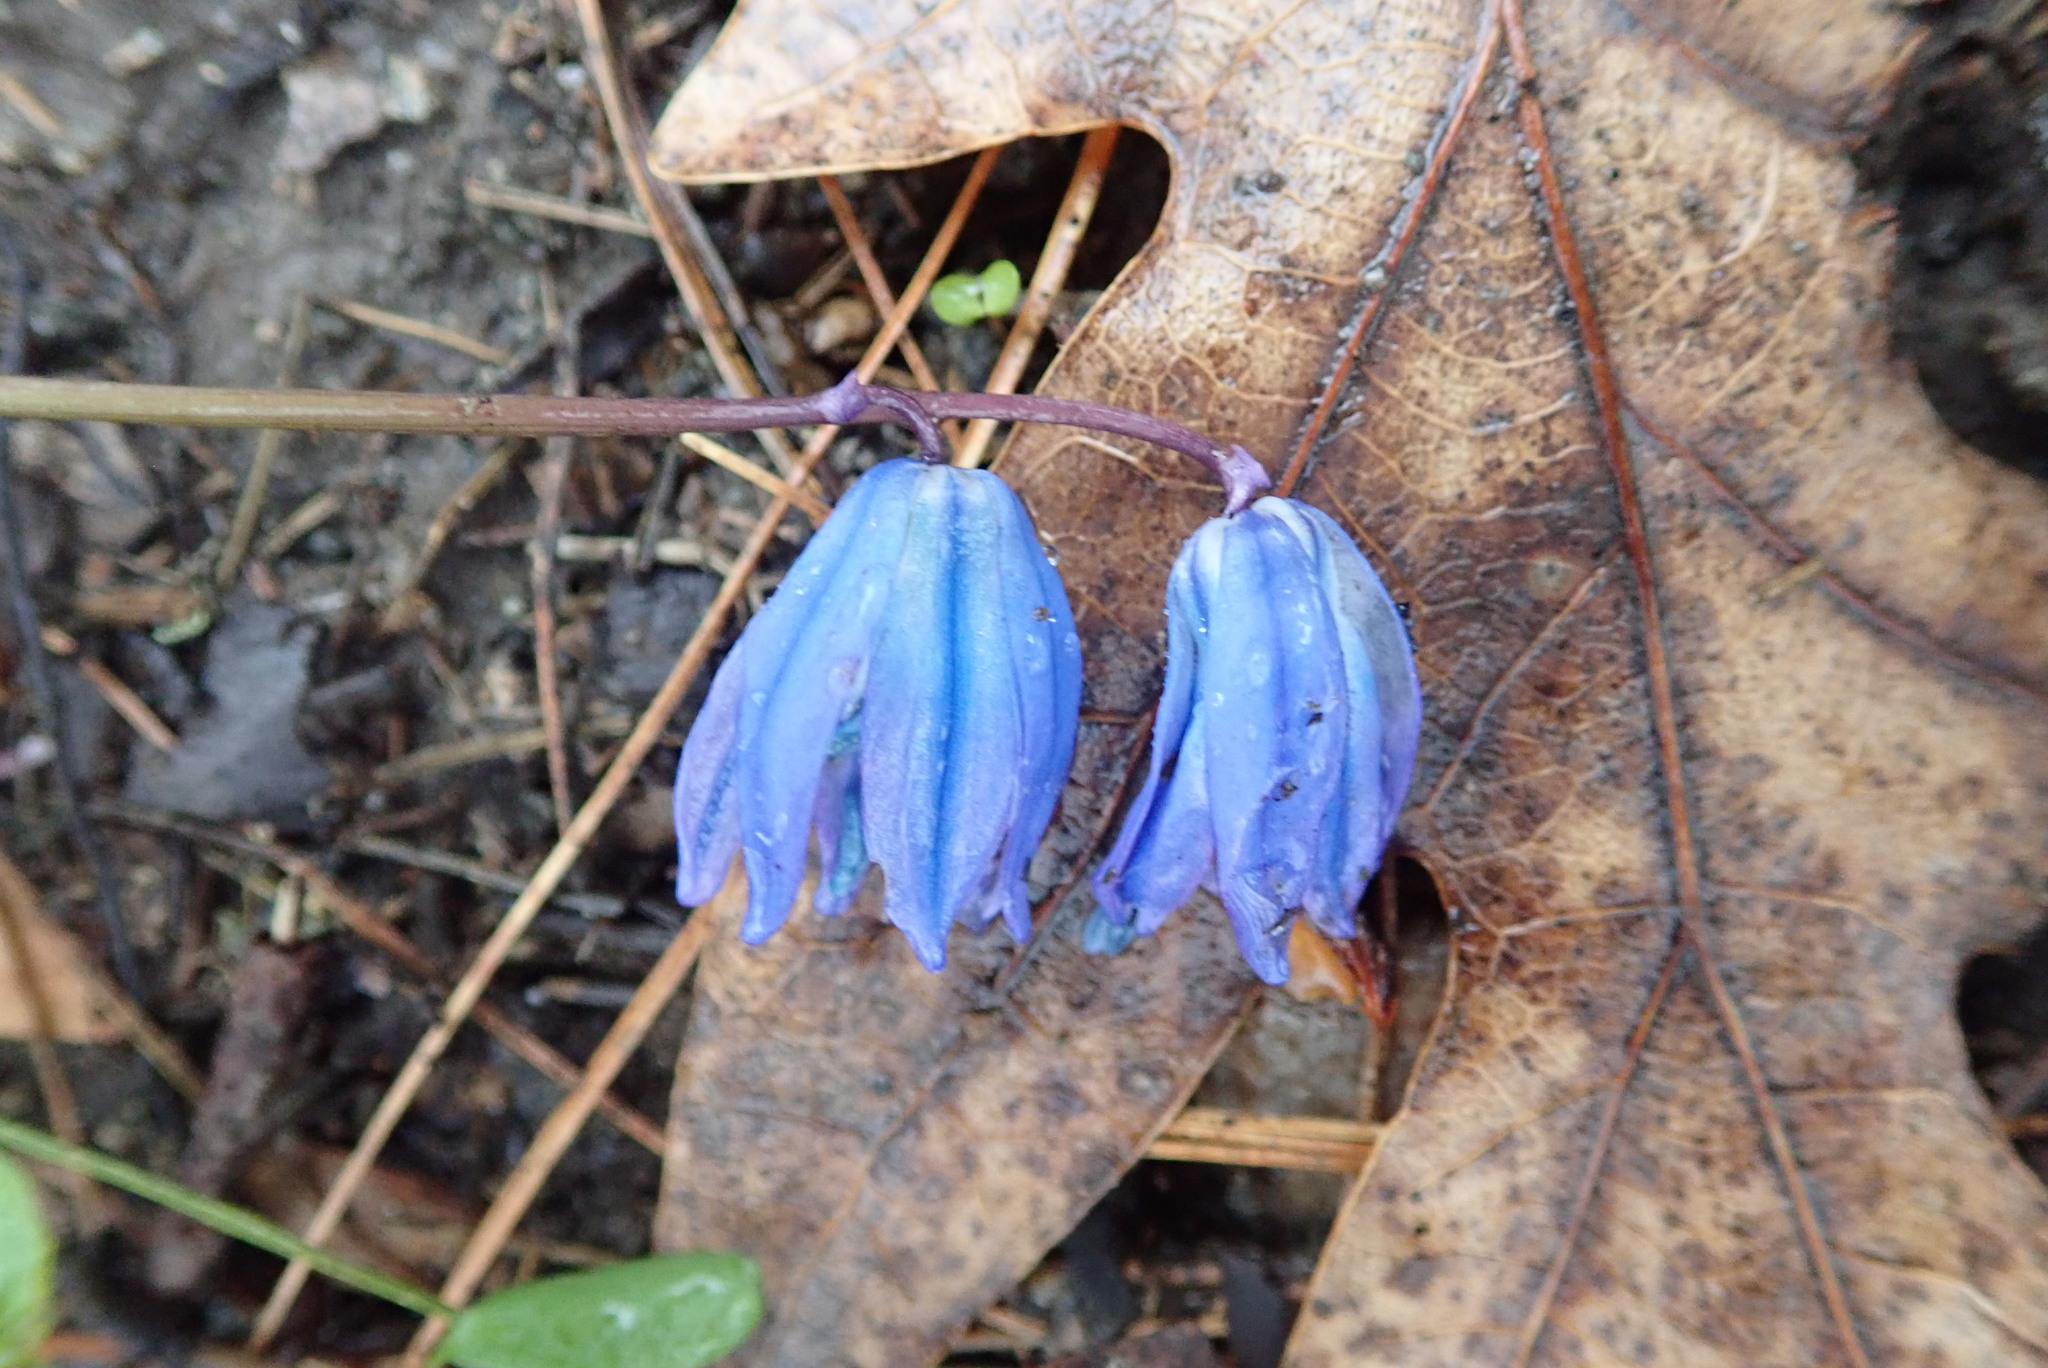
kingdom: Plantae
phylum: Tracheophyta
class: Liliopsida
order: Asparagales
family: Asparagaceae
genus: Scilla
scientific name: Scilla siberica
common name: Siberian squill
